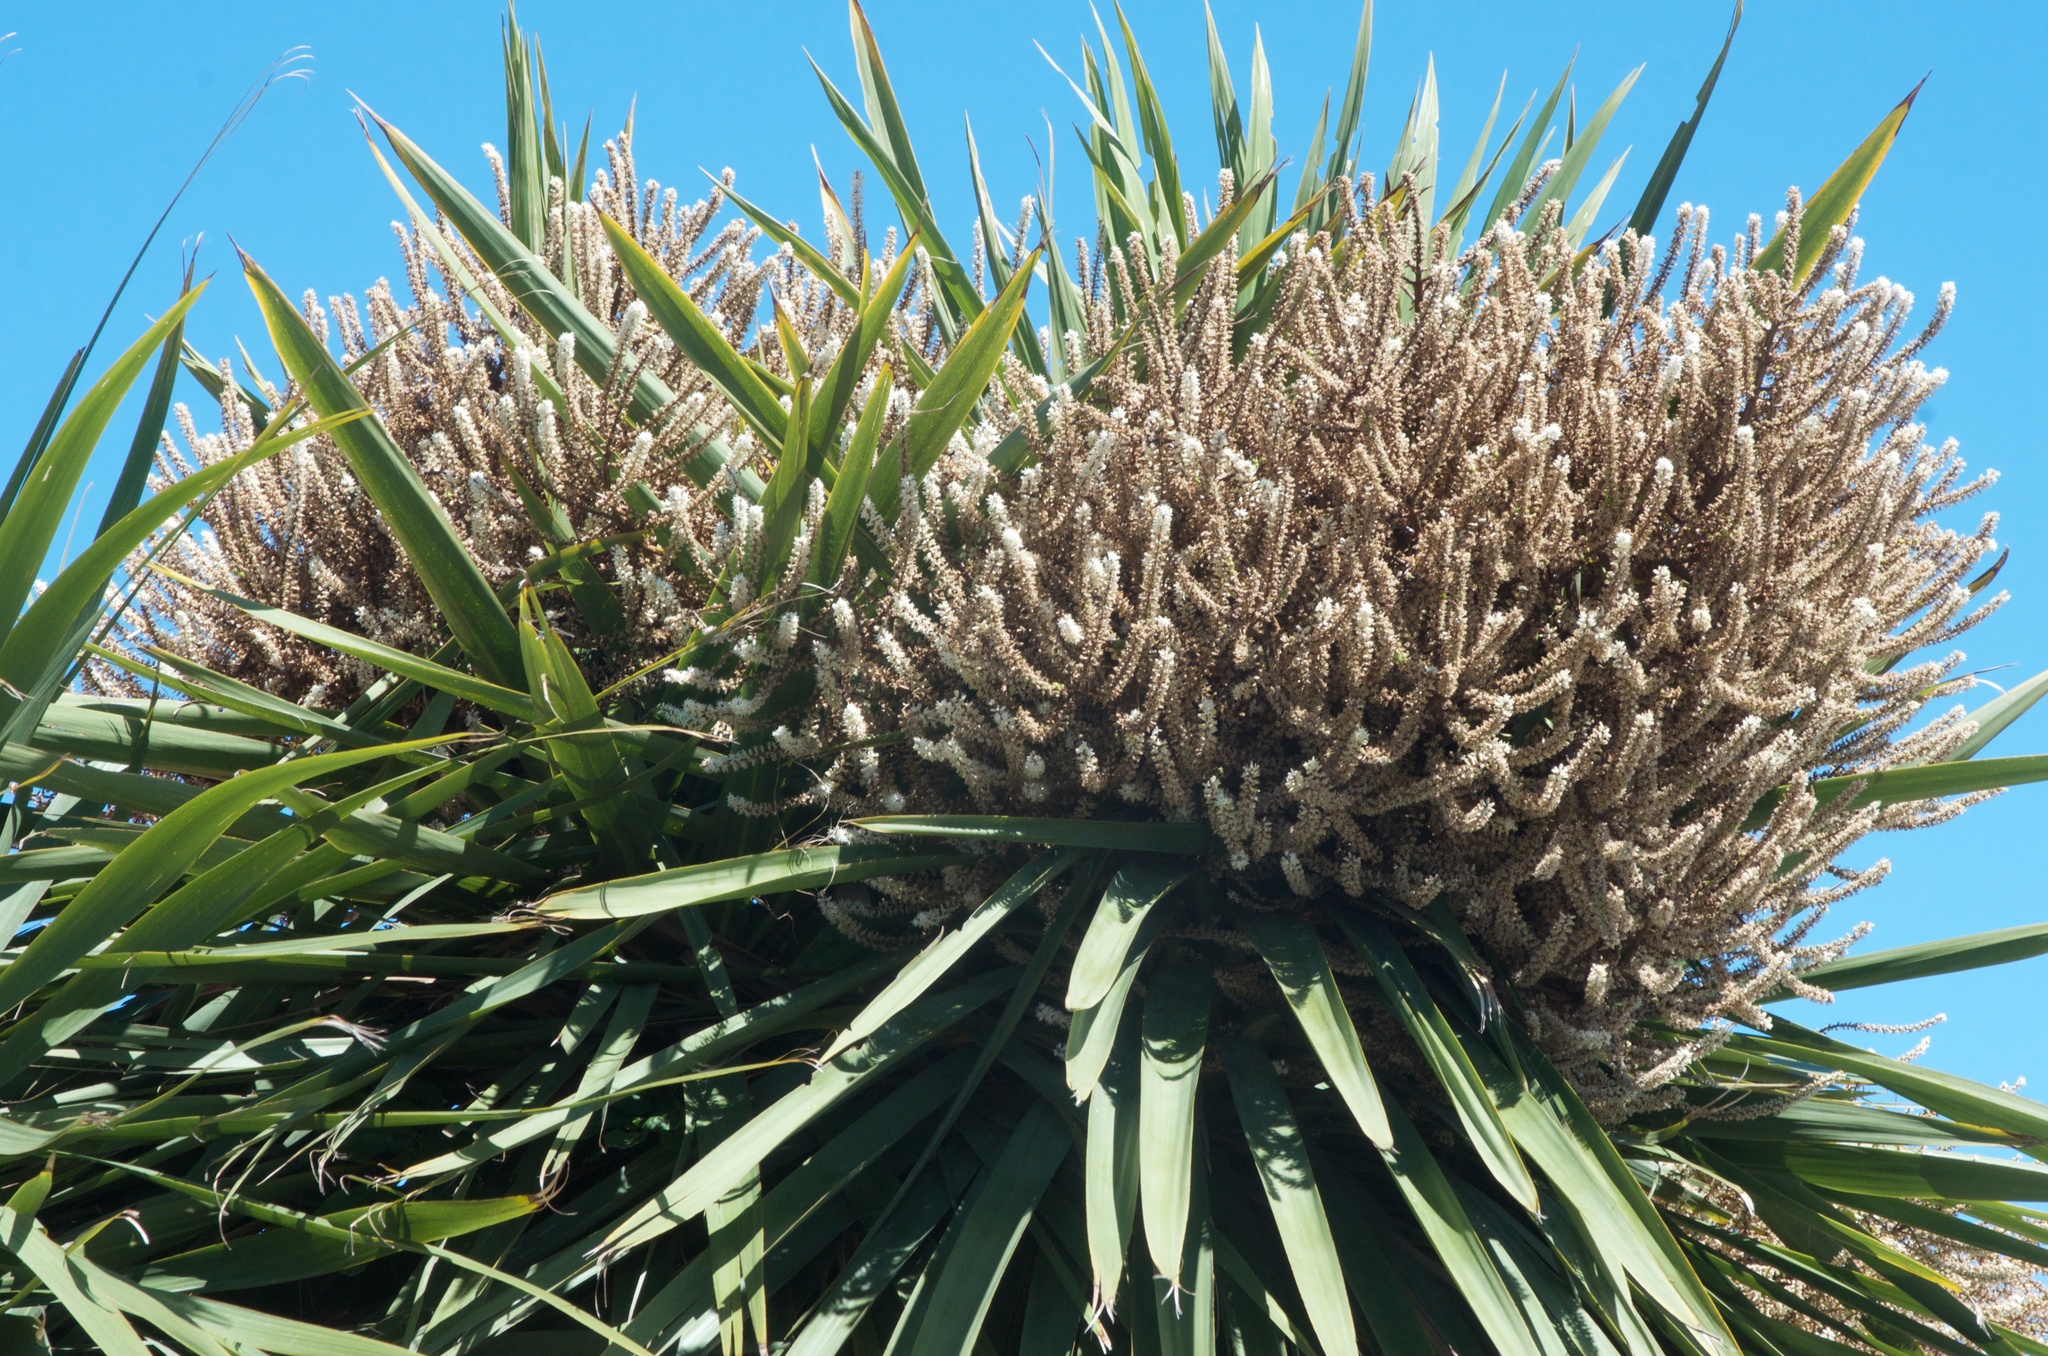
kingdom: Plantae
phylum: Tracheophyta
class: Liliopsida
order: Asparagales
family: Asparagaceae
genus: Cordyline
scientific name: Cordyline australis
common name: Cabbage-palm
